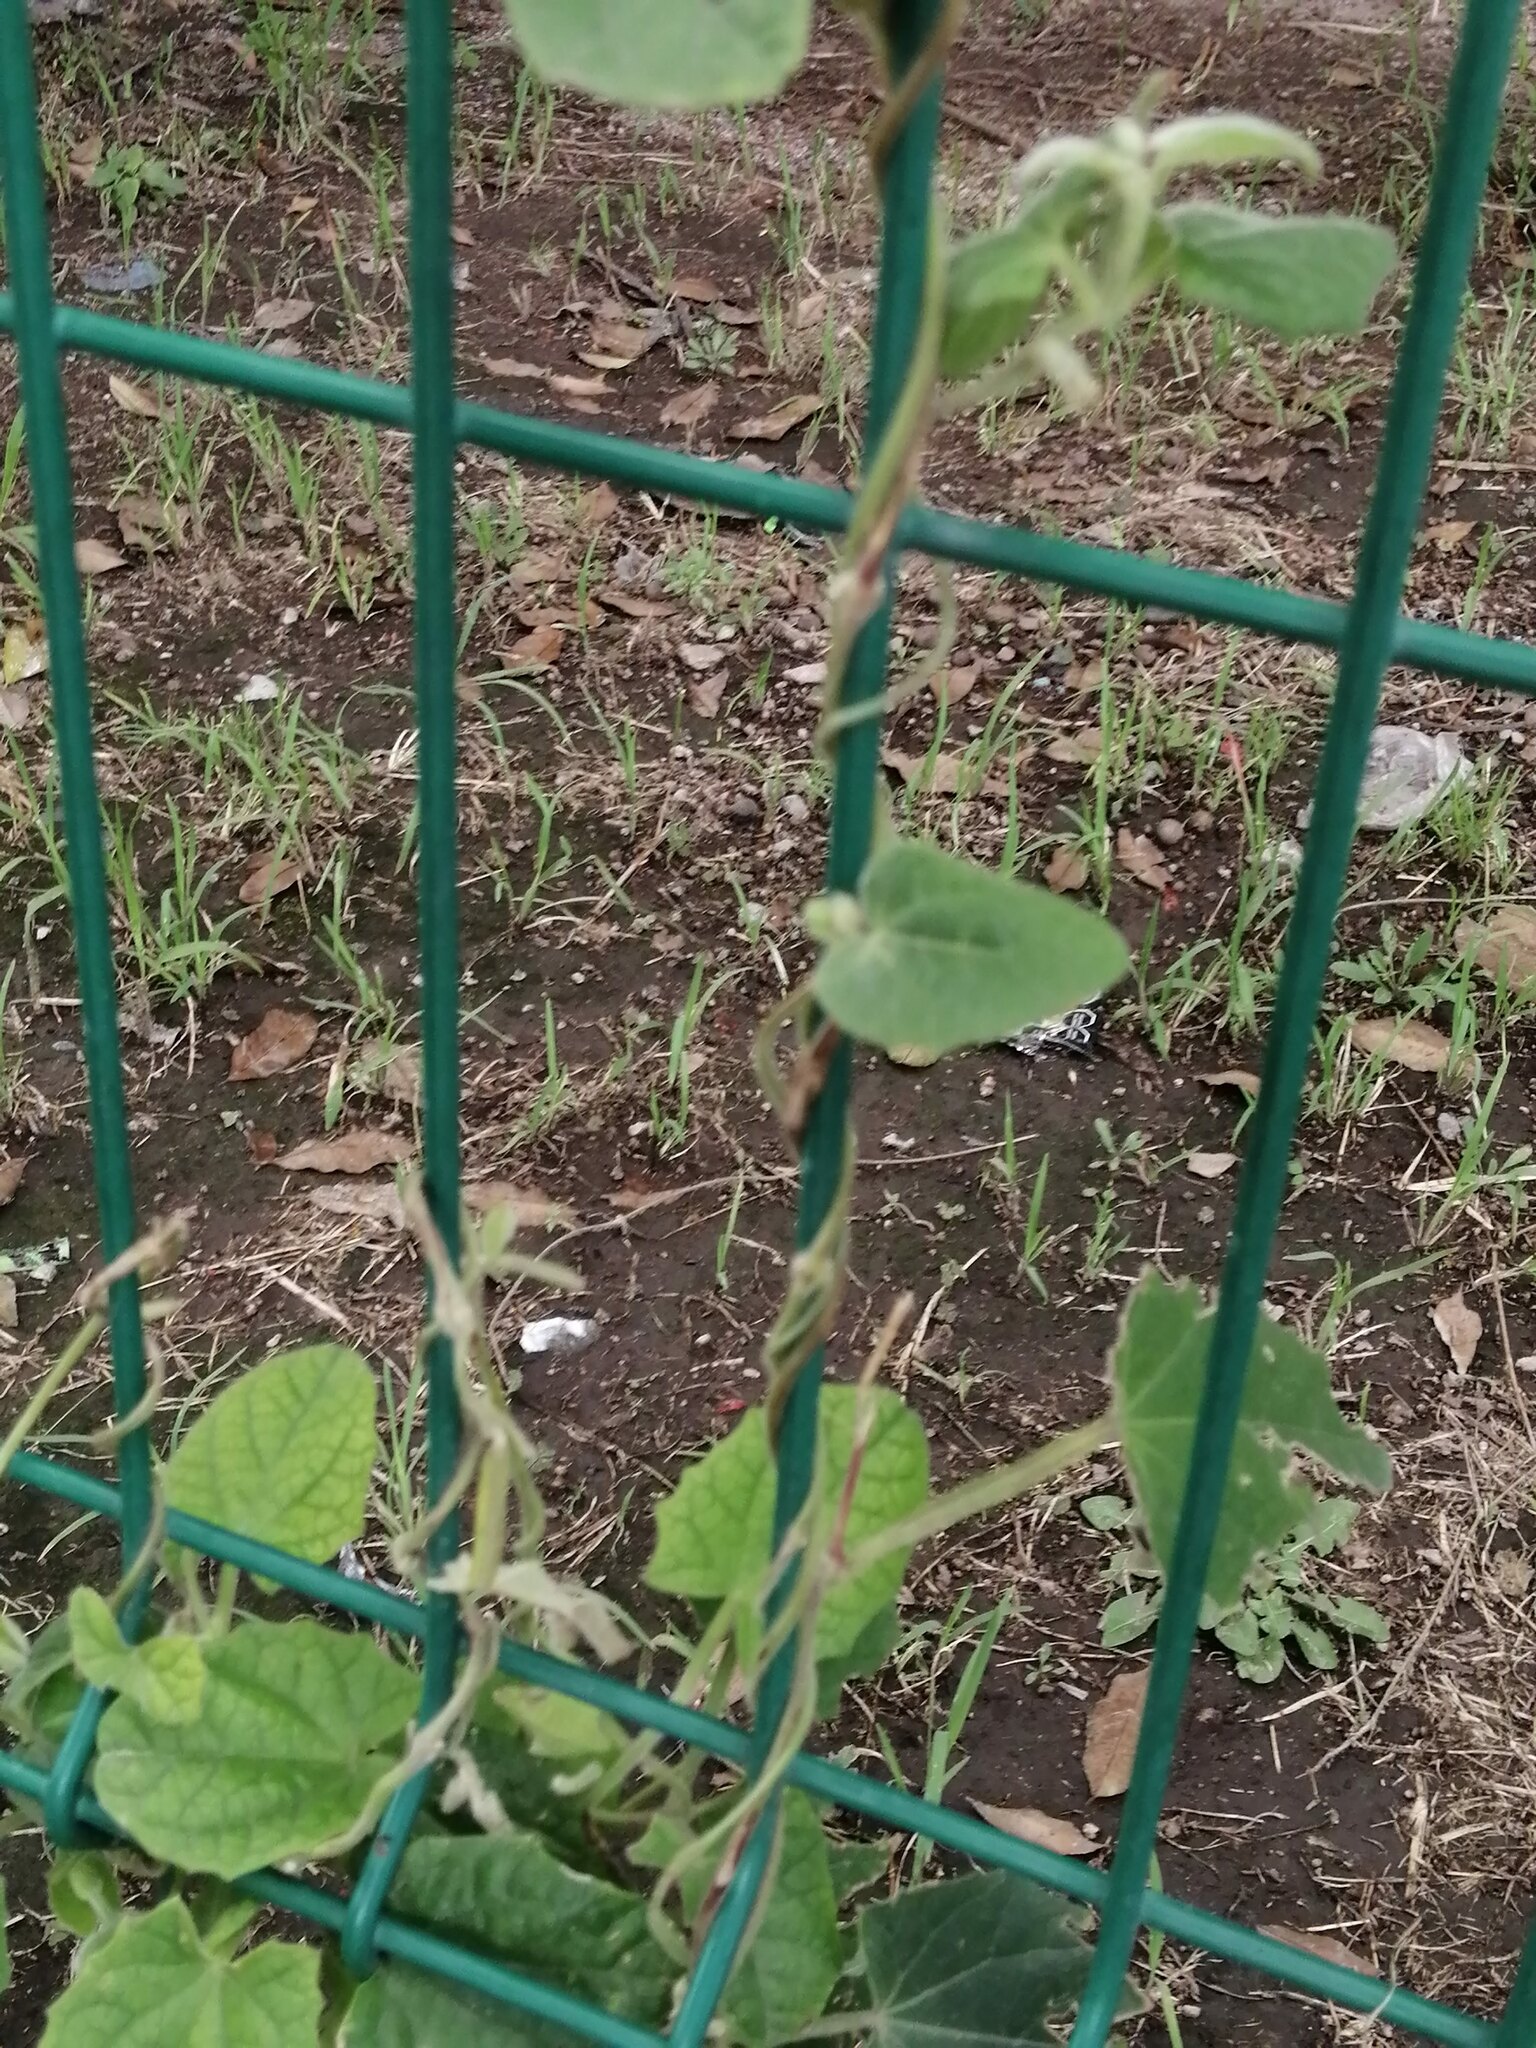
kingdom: Plantae
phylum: Tracheophyta
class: Magnoliopsida
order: Gentianales
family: Apocynaceae
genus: Gonolobus
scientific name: Gonolobus grandiflorus
